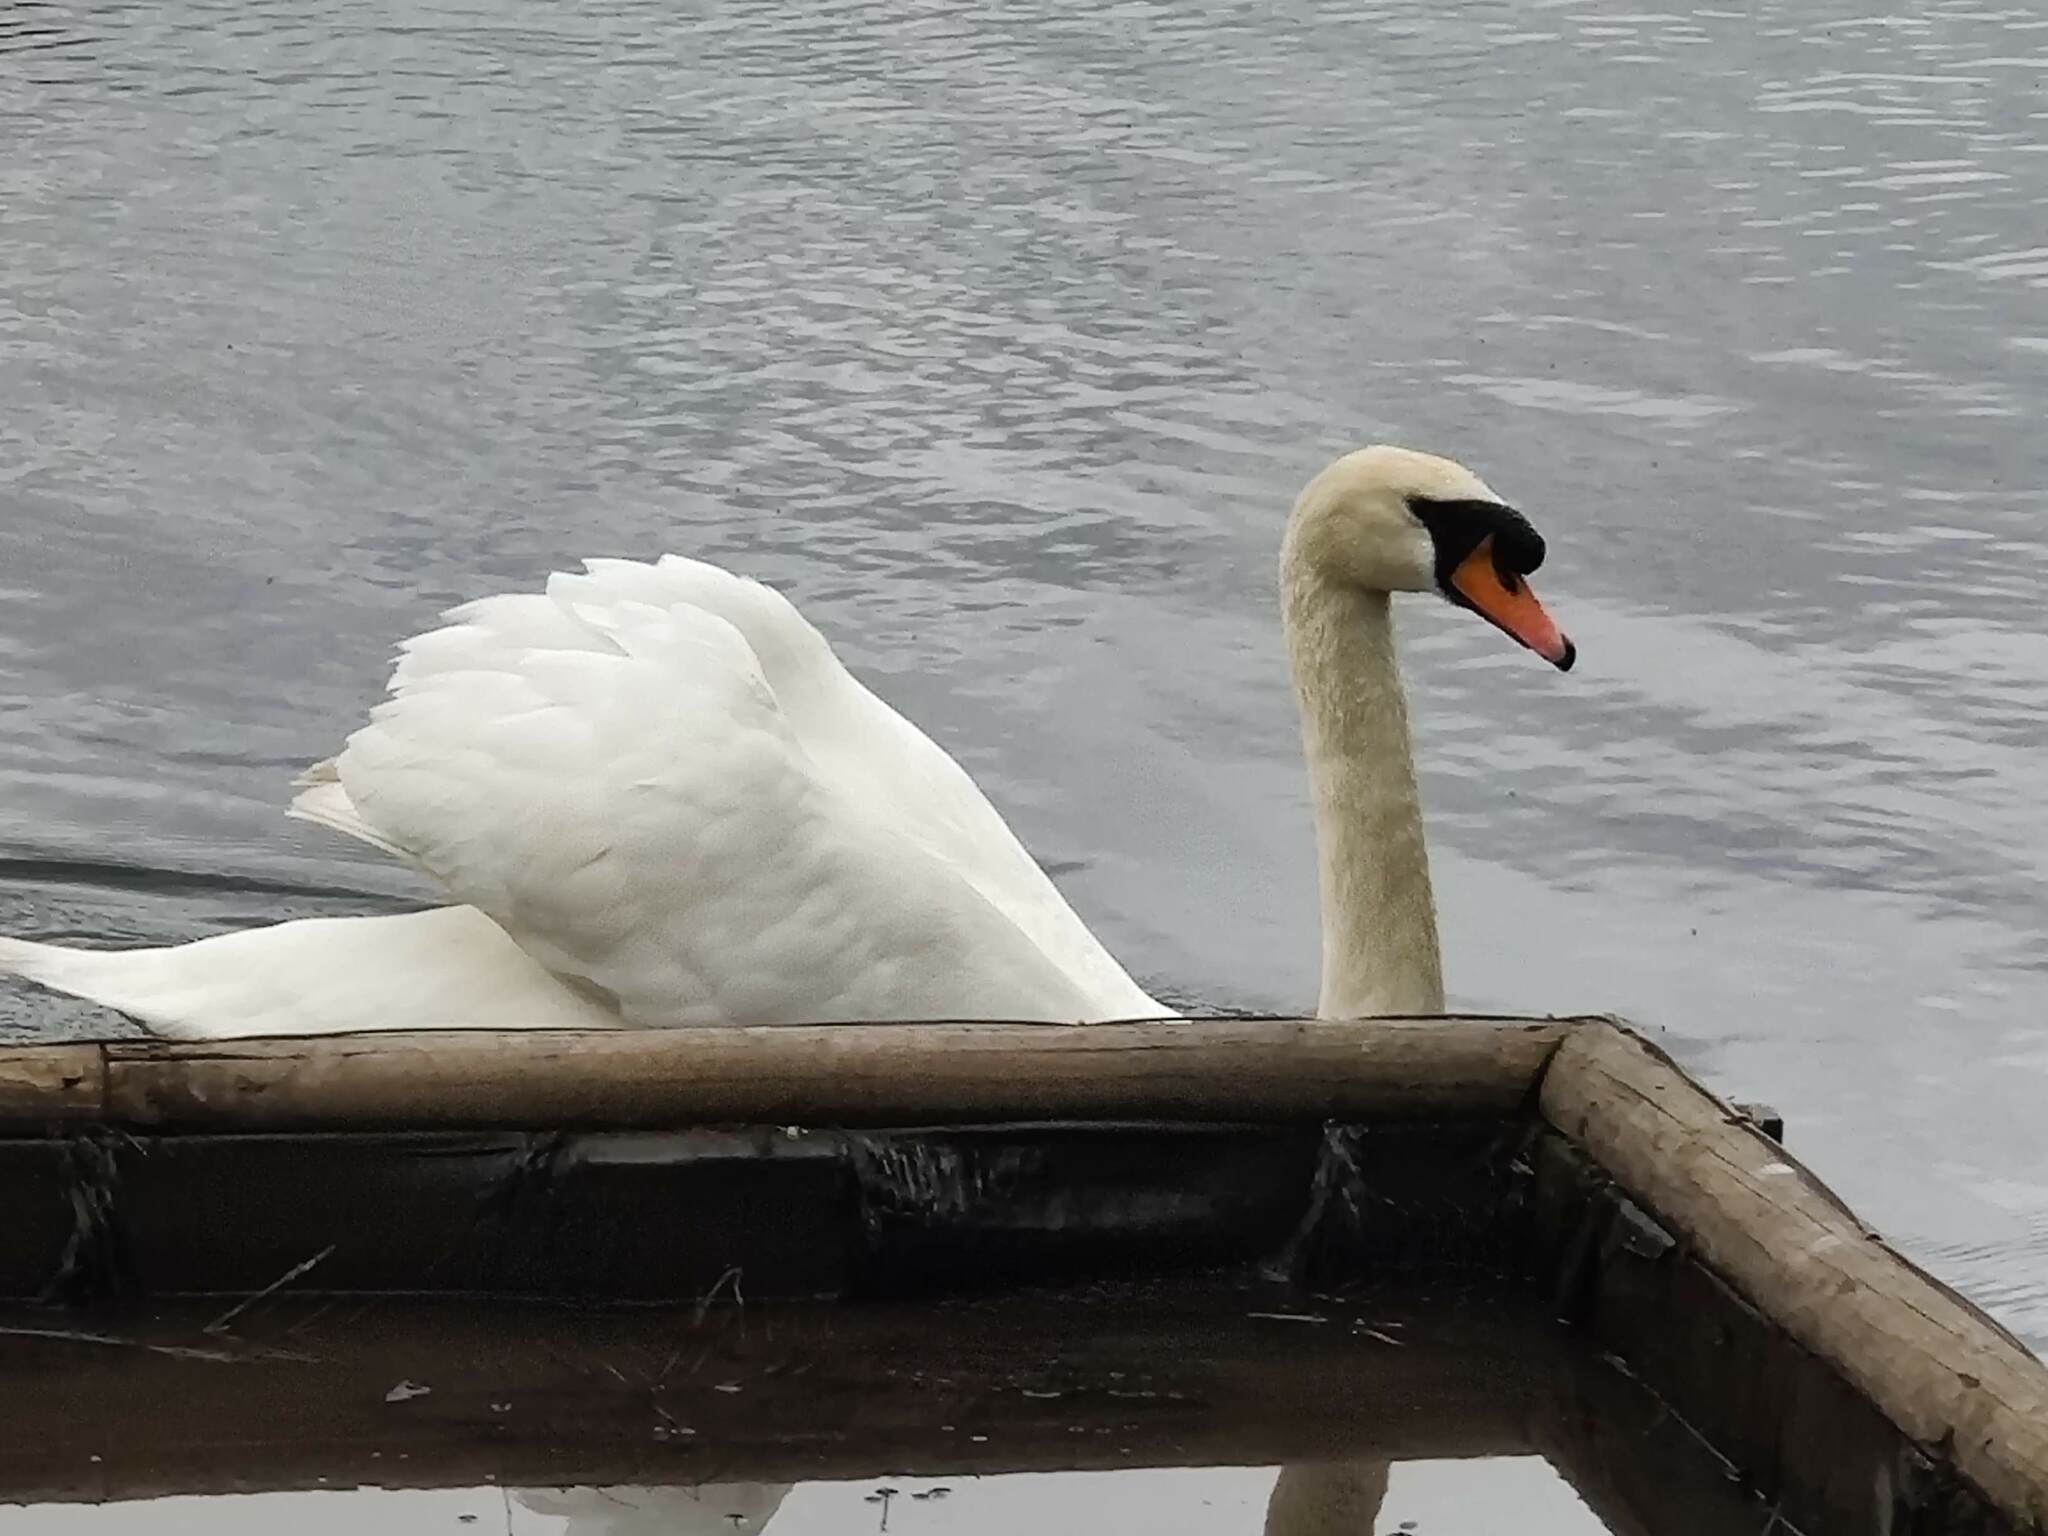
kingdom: Animalia
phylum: Chordata
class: Aves
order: Anseriformes
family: Anatidae
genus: Cygnus
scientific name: Cygnus olor
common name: Mute swan
